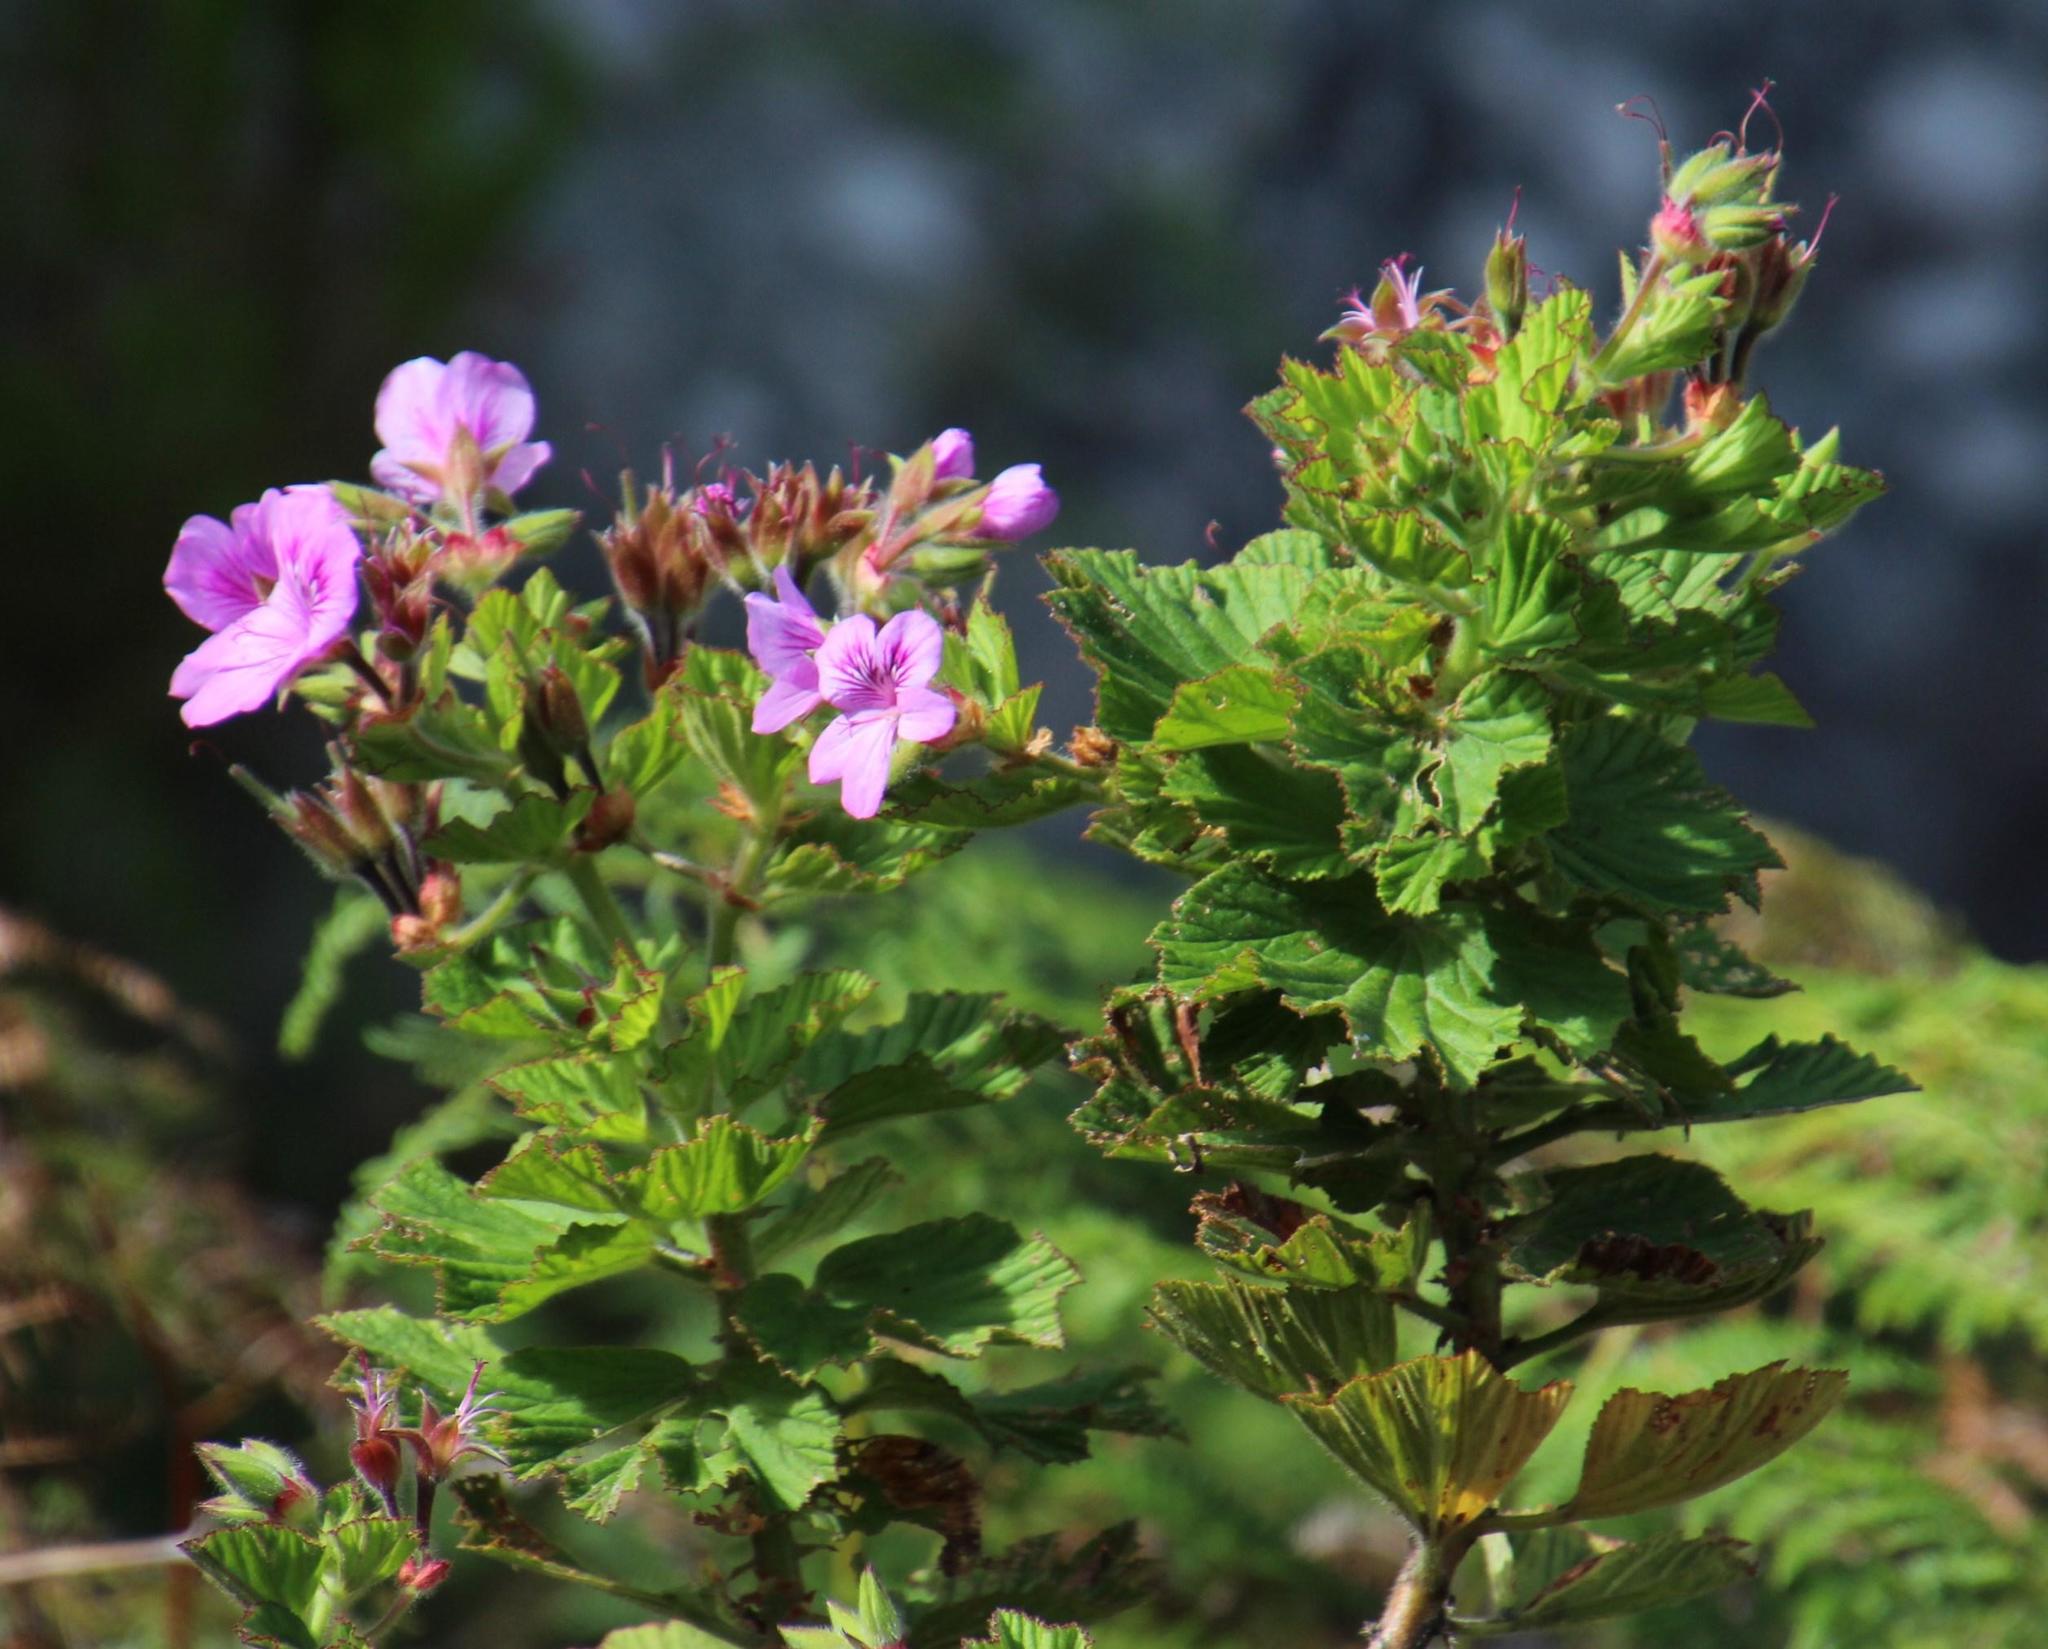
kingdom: Plantae
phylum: Tracheophyta
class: Magnoliopsida
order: Geraniales
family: Geraniaceae
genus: Pelargonium
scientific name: Pelargonium cucullatum
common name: Tree pelargonium
